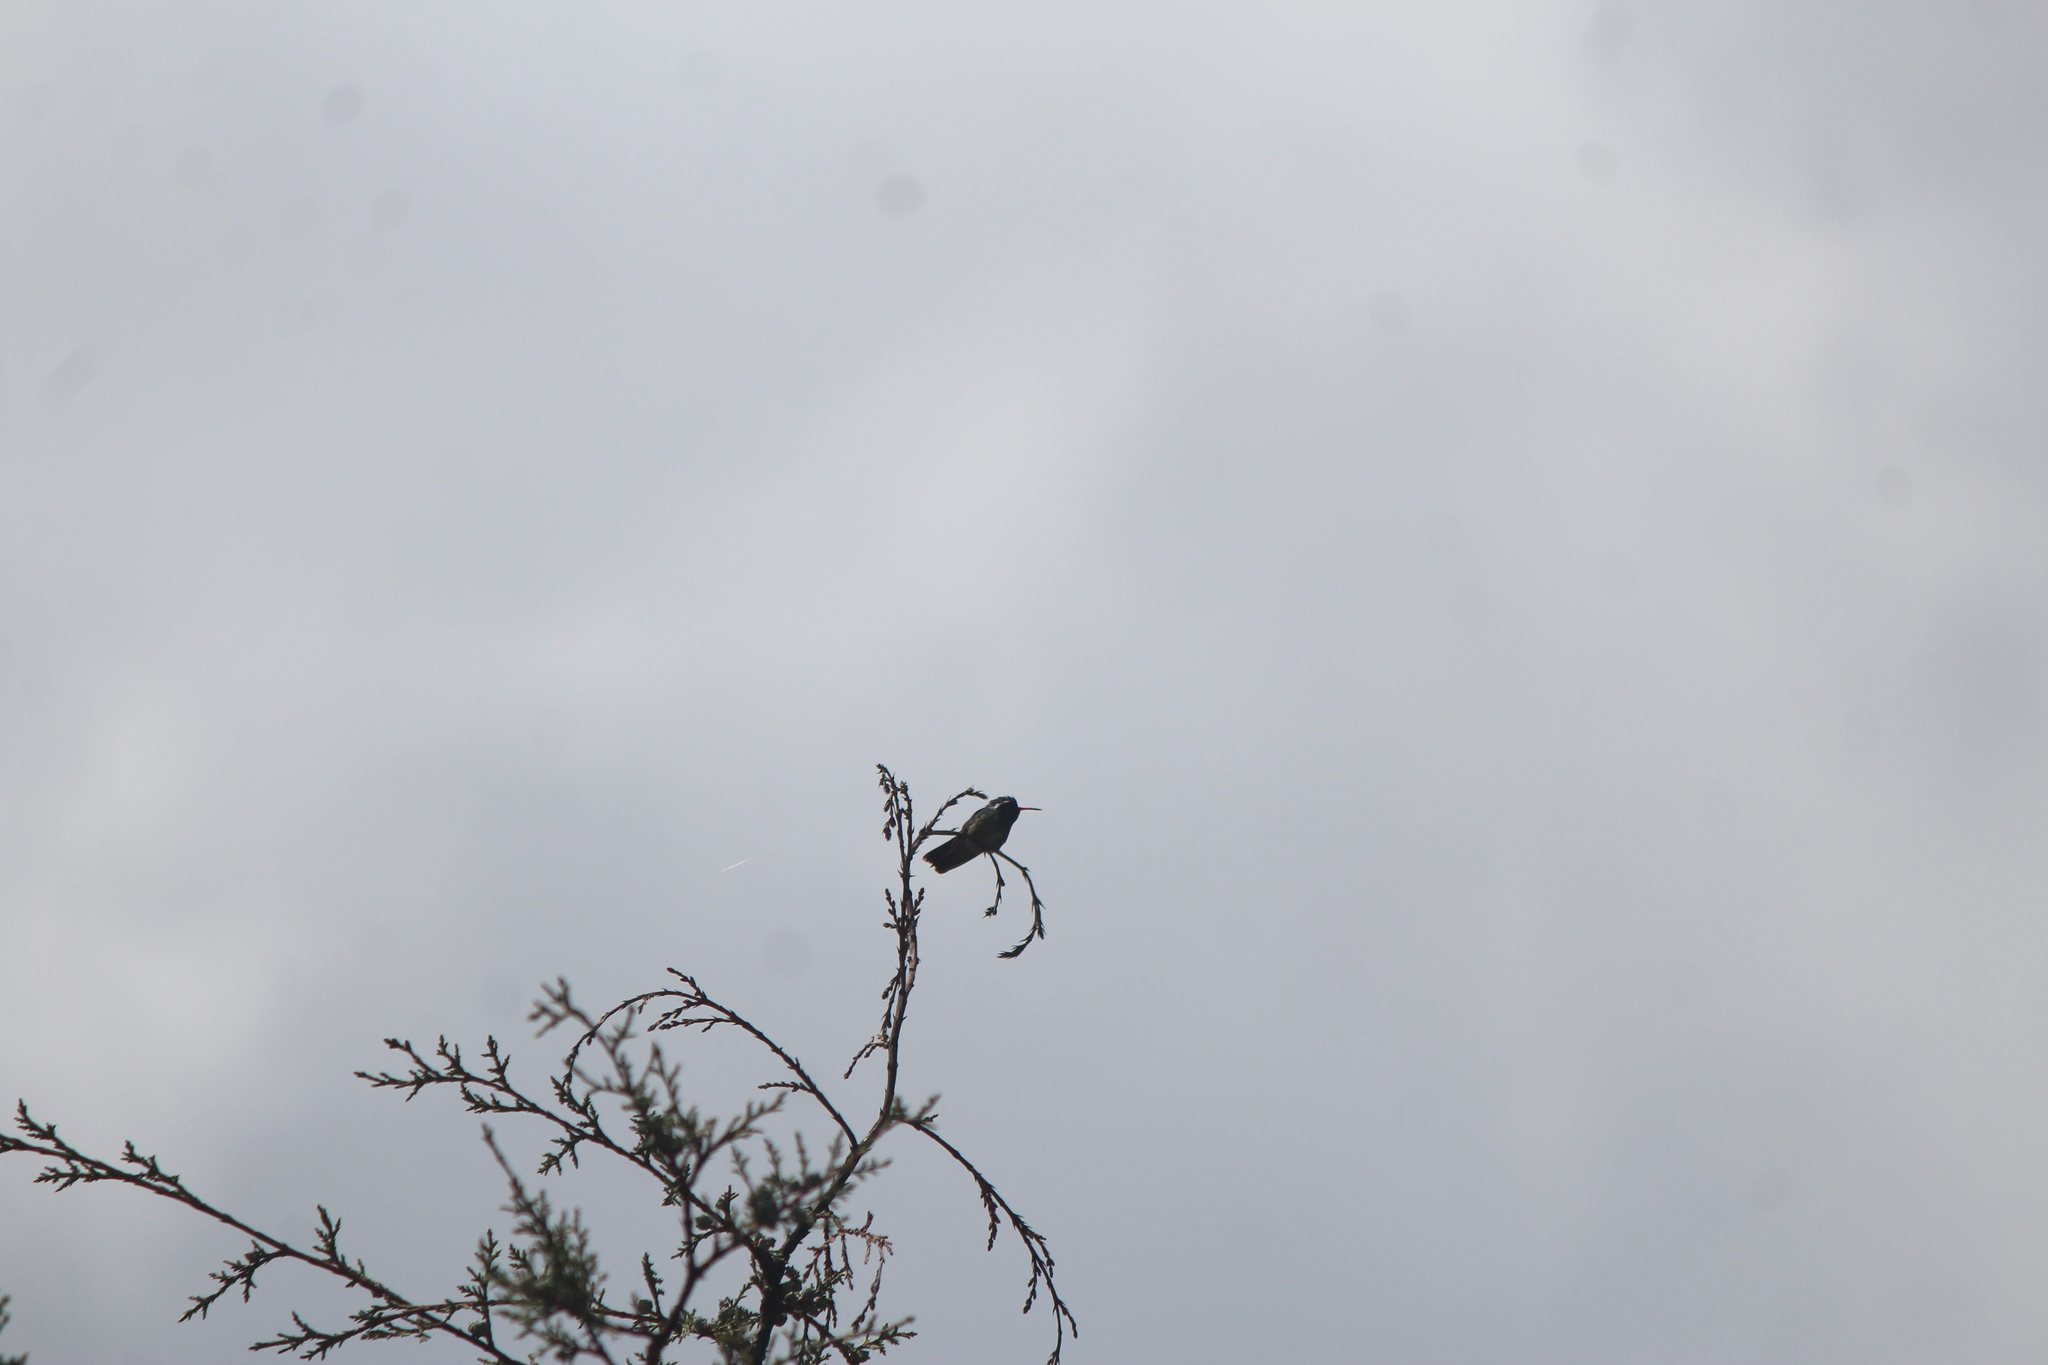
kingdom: Animalia
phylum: Chordata
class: Aves
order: Apodiformes
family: Trochilidae
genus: Basilinna
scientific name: Basilinna leucotis
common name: White-eared hummingbird
